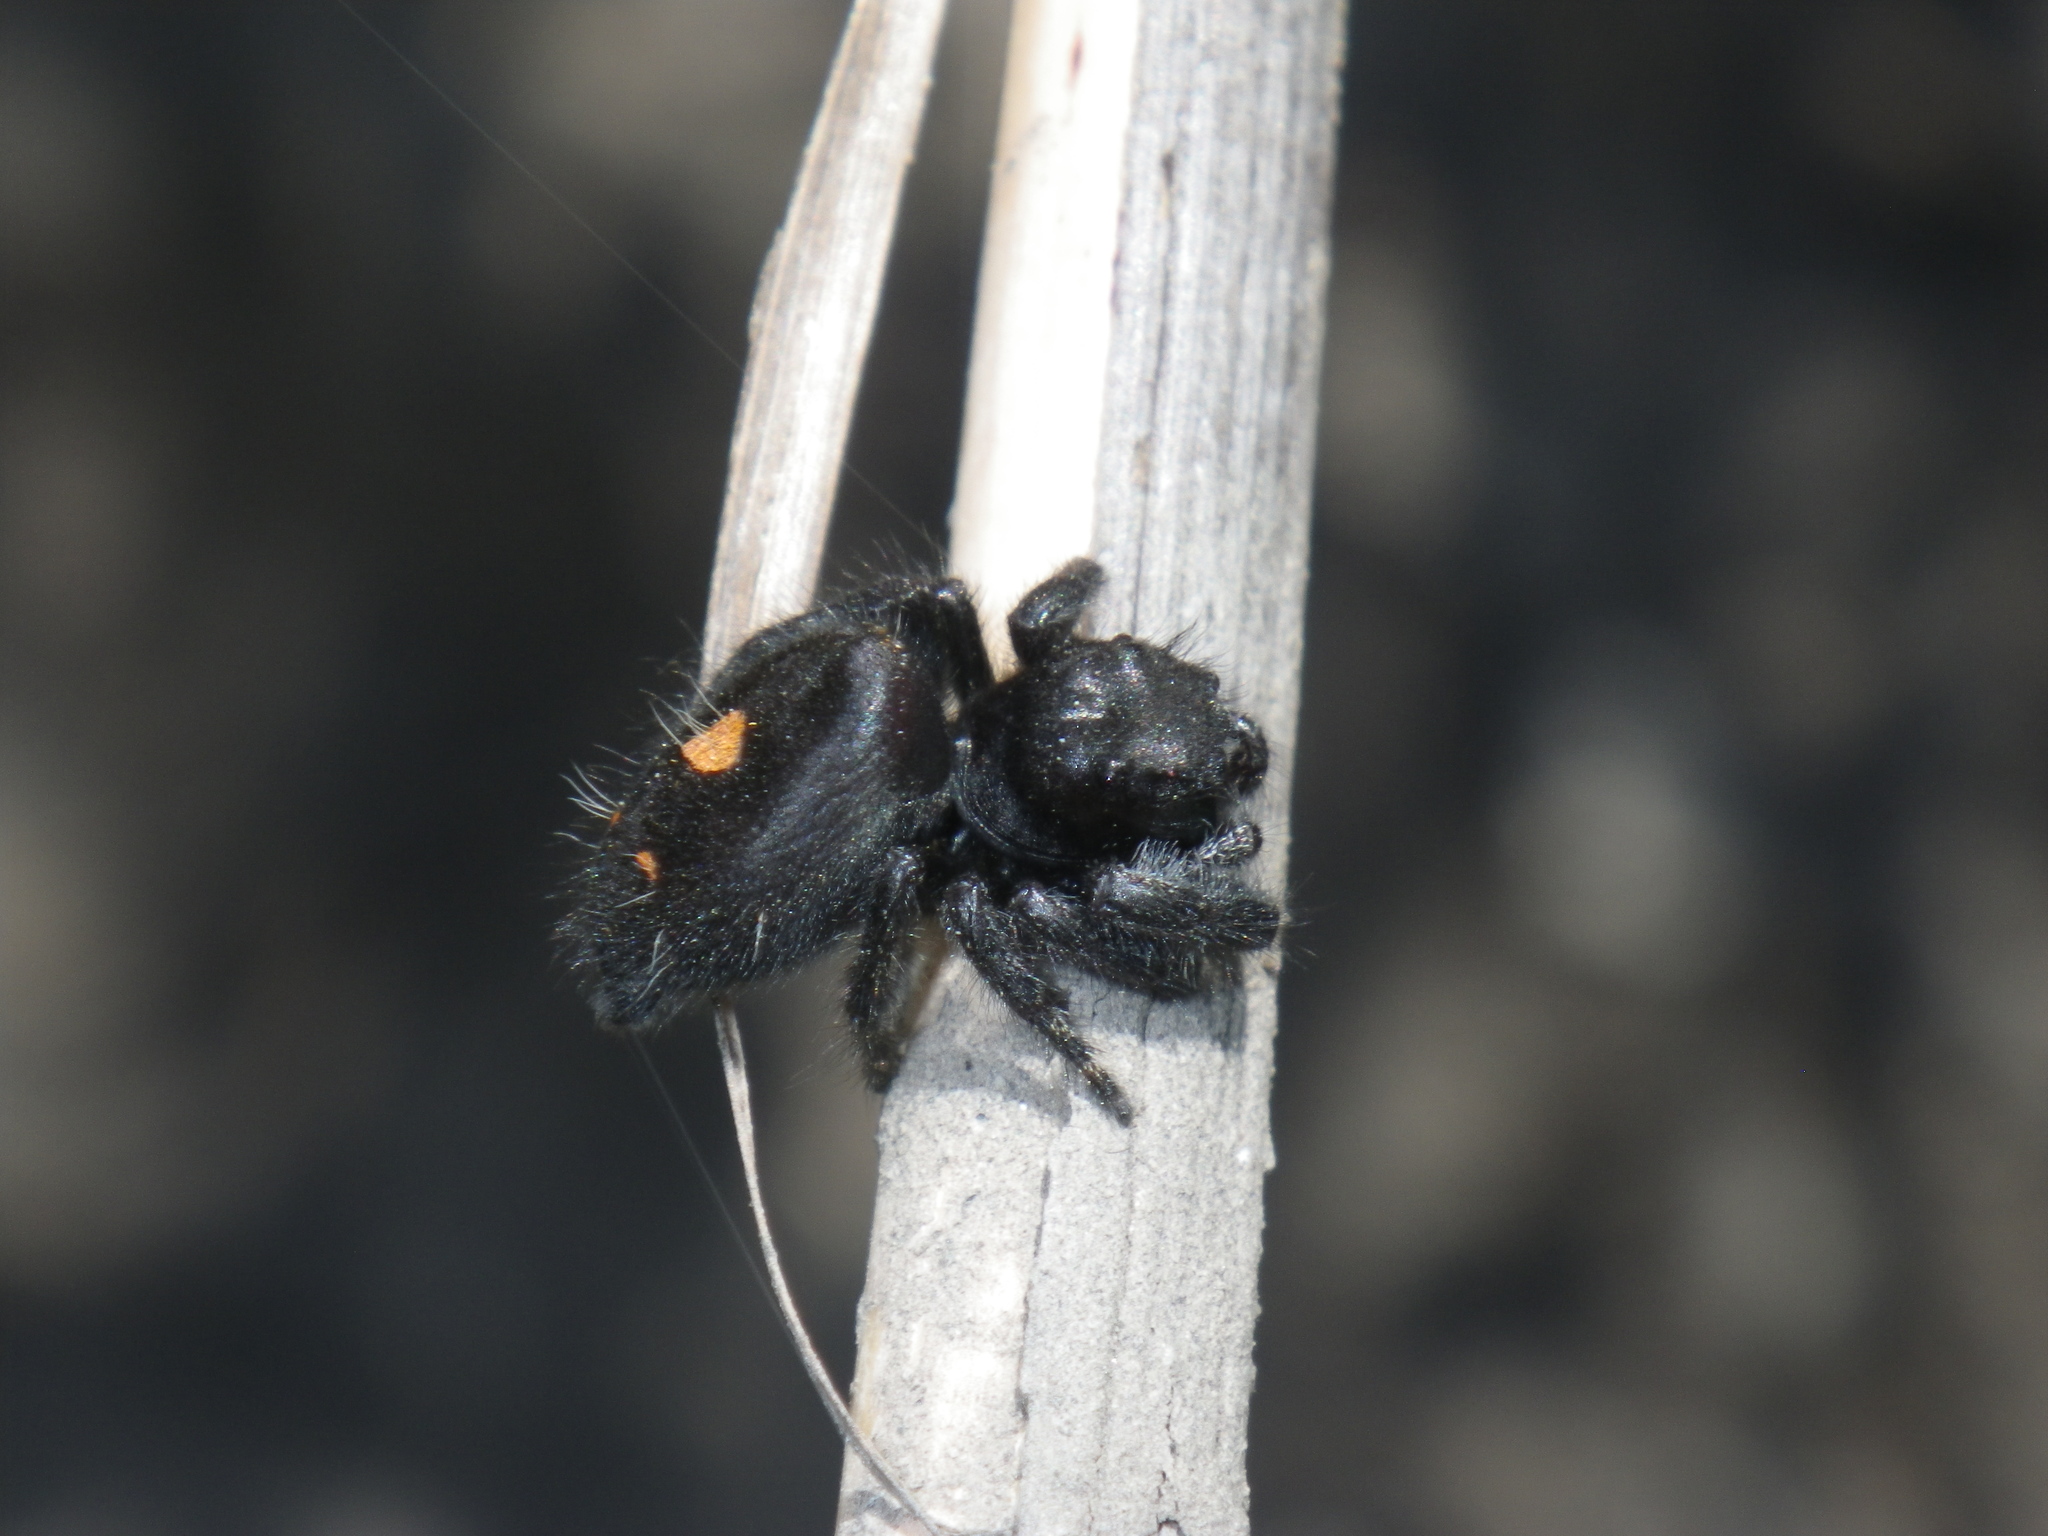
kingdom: Animalia
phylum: Arthropoda
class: Arachnida
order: Araneae
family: Salticidae
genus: Phidippus
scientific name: Phidippus audax
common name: Bold jumper
